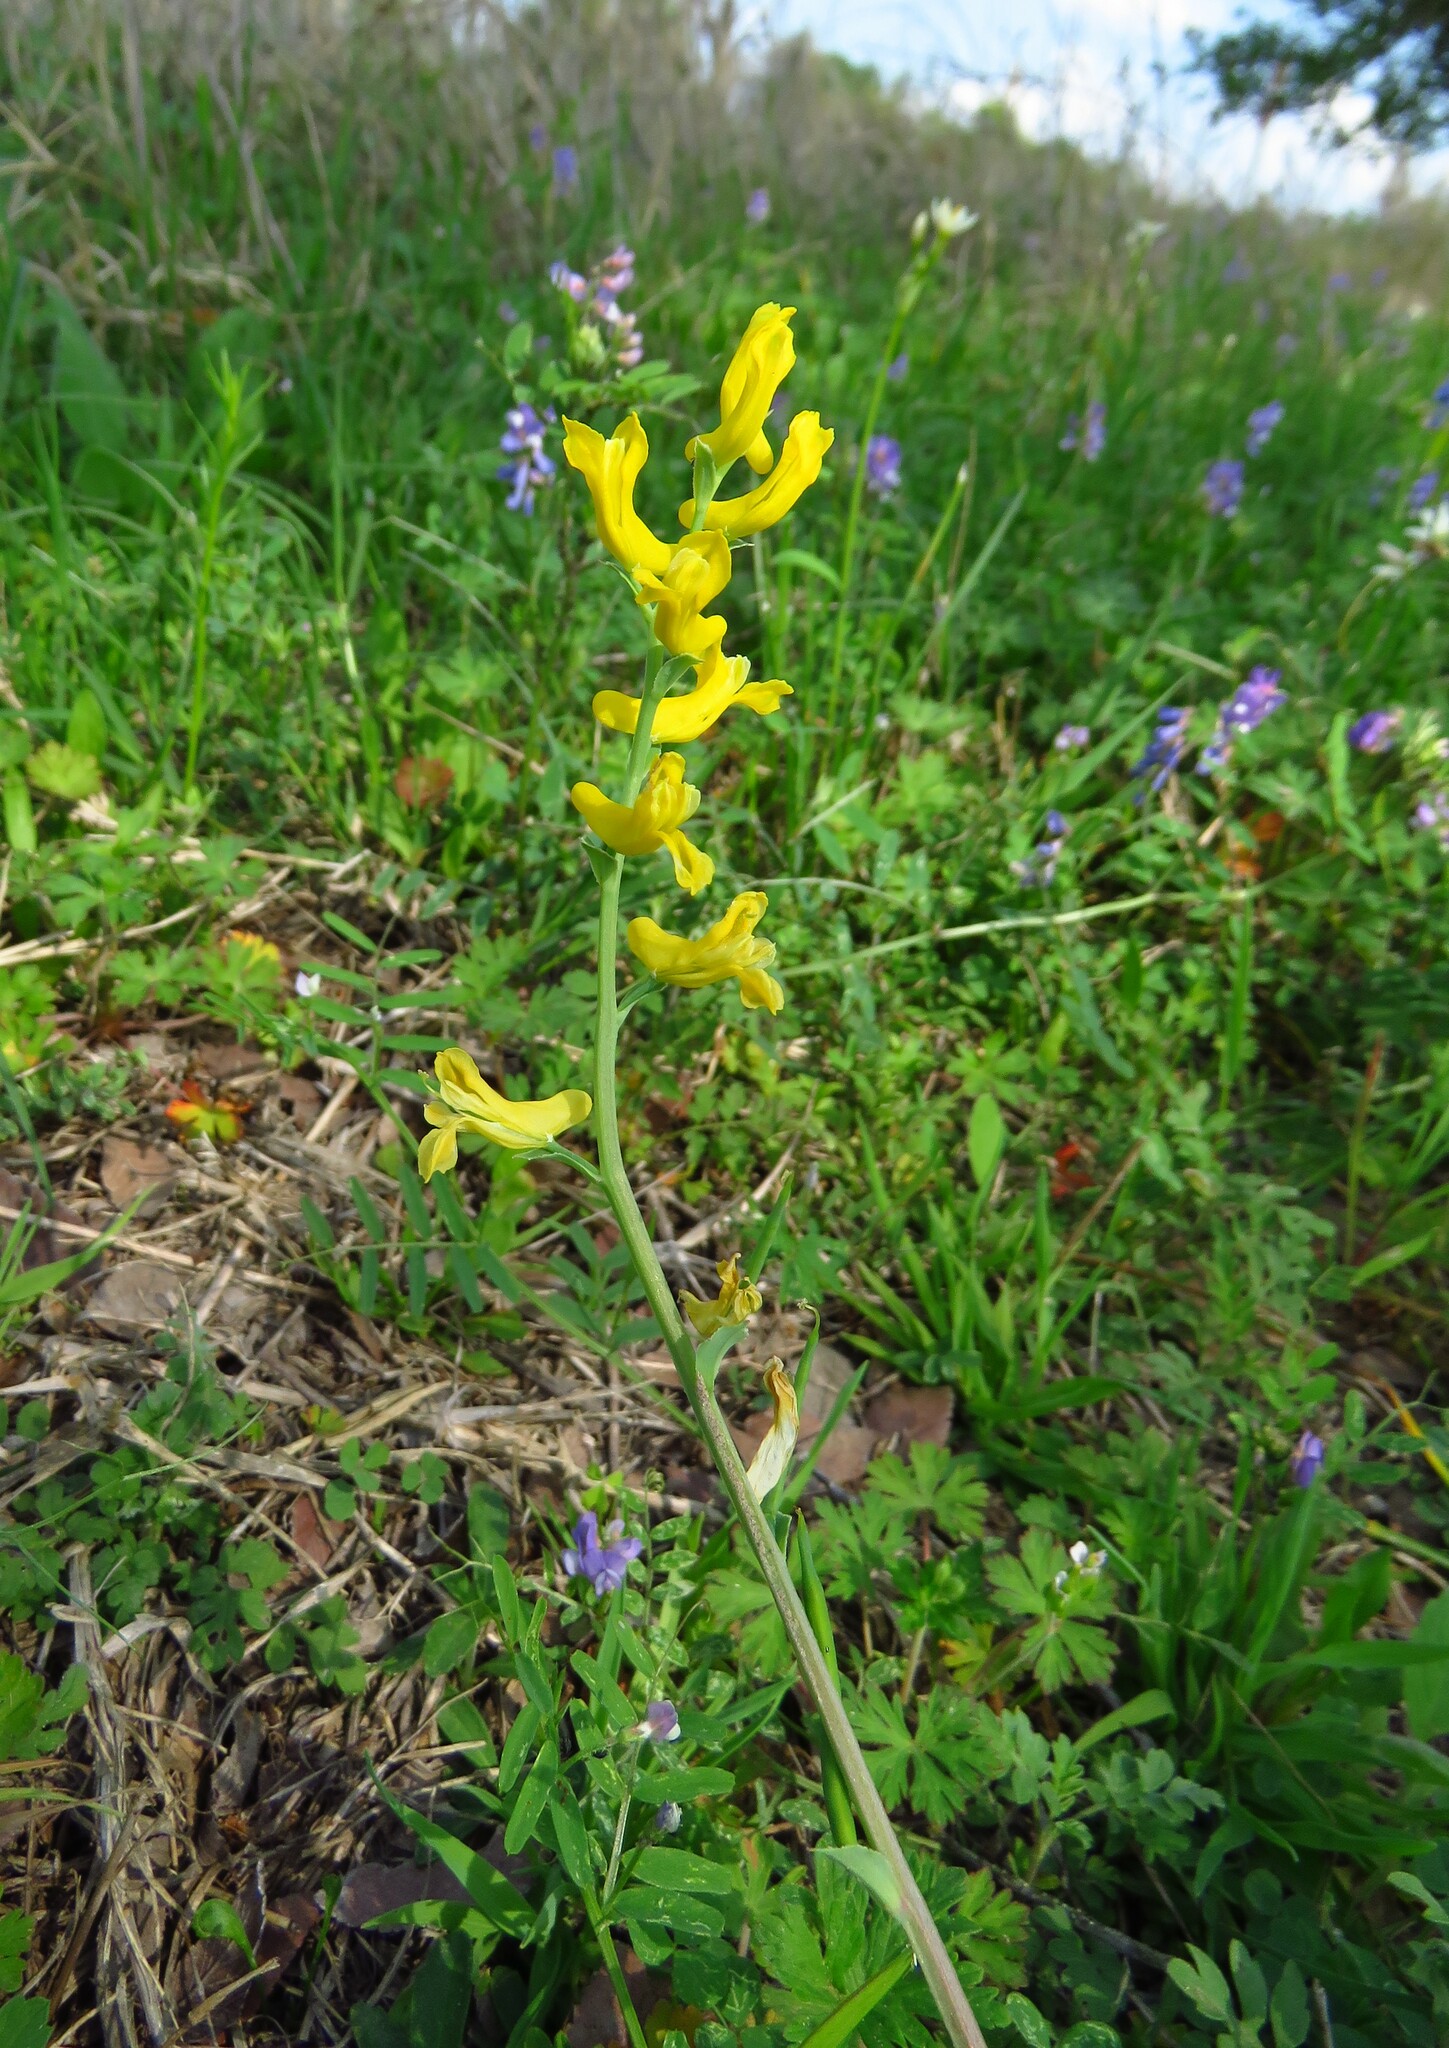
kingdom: Plantae
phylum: Tracheophyta
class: Magnoliopsida
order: Ranunculales
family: Papaveraceae
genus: Corydalis
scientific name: Corydalis aurea
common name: Golden corydalis
